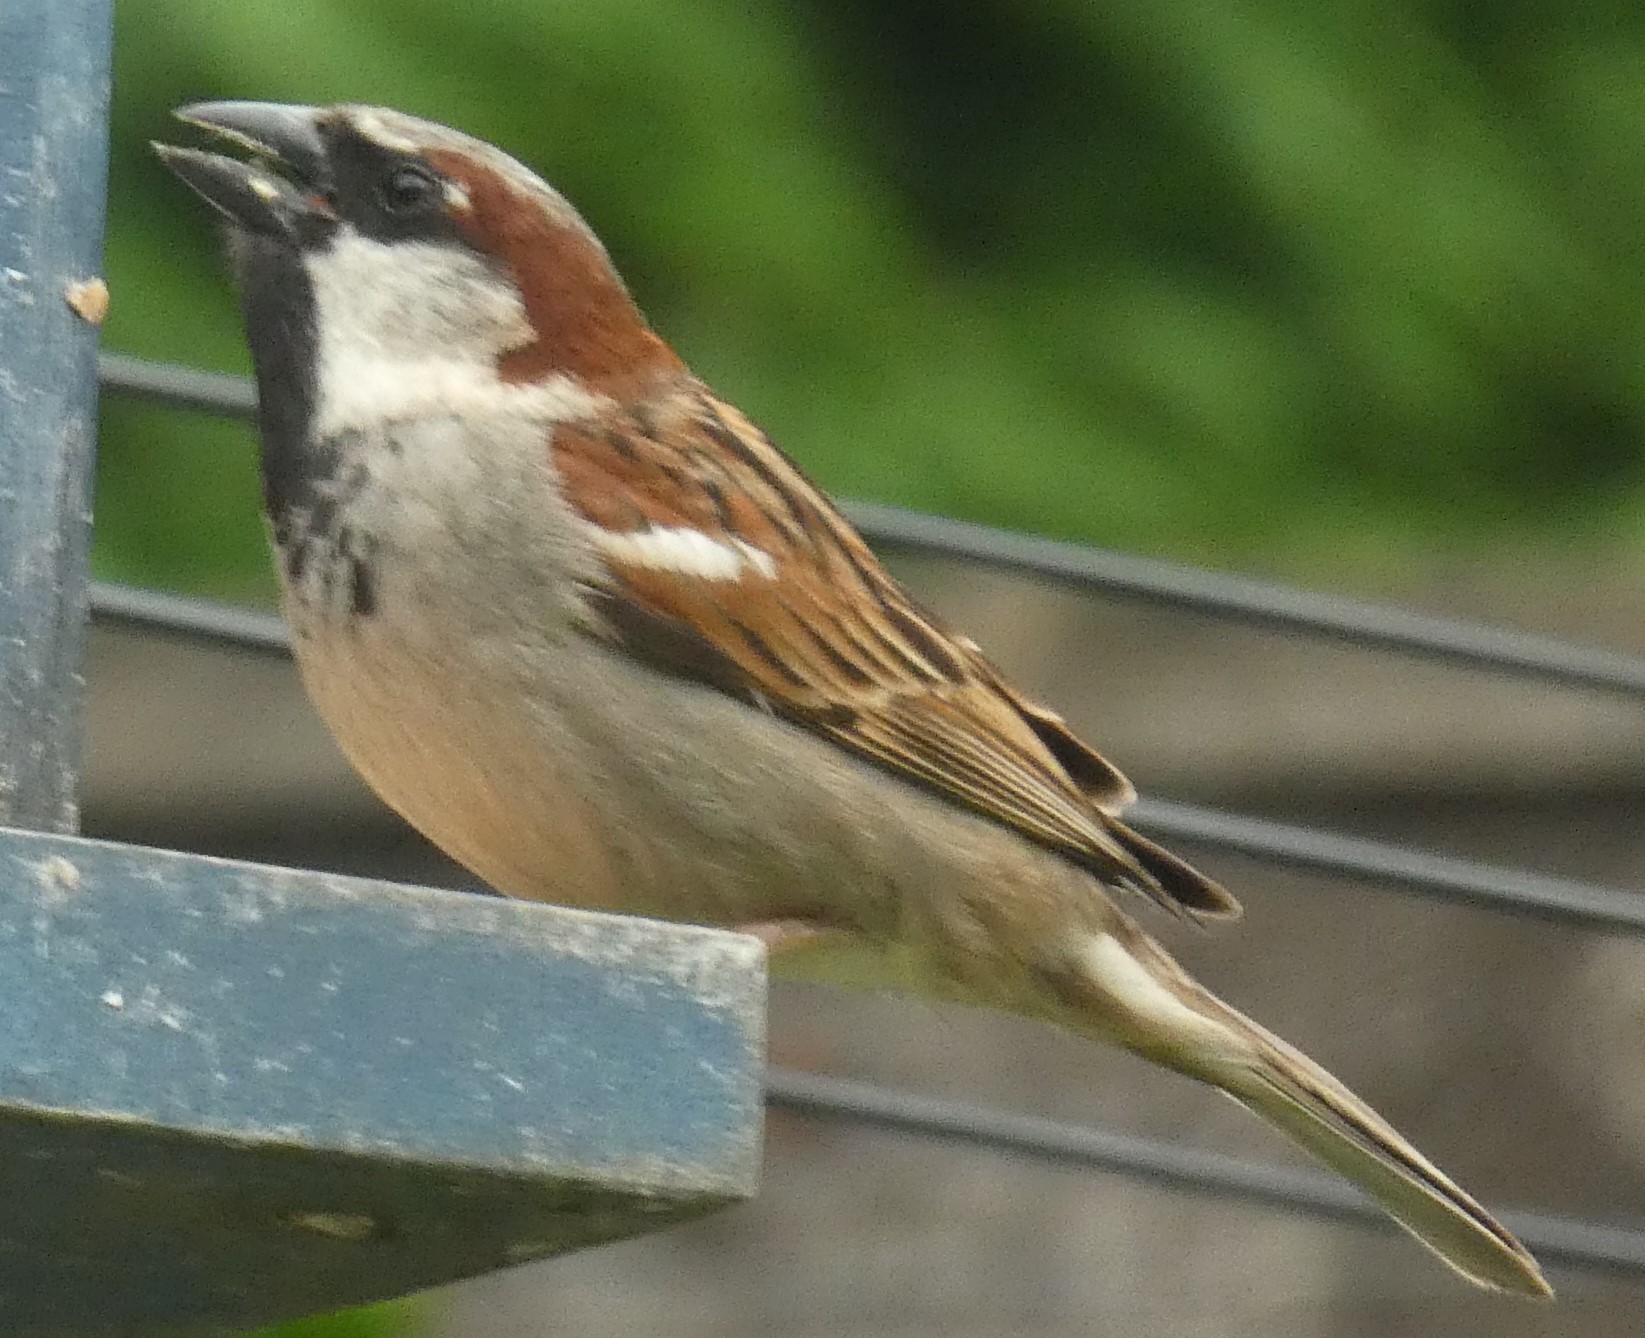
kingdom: Animalia
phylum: Chordata
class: Aves
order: Passeriformes
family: Passeridae
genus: Passer
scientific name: Passer domesticus
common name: House sparrow
